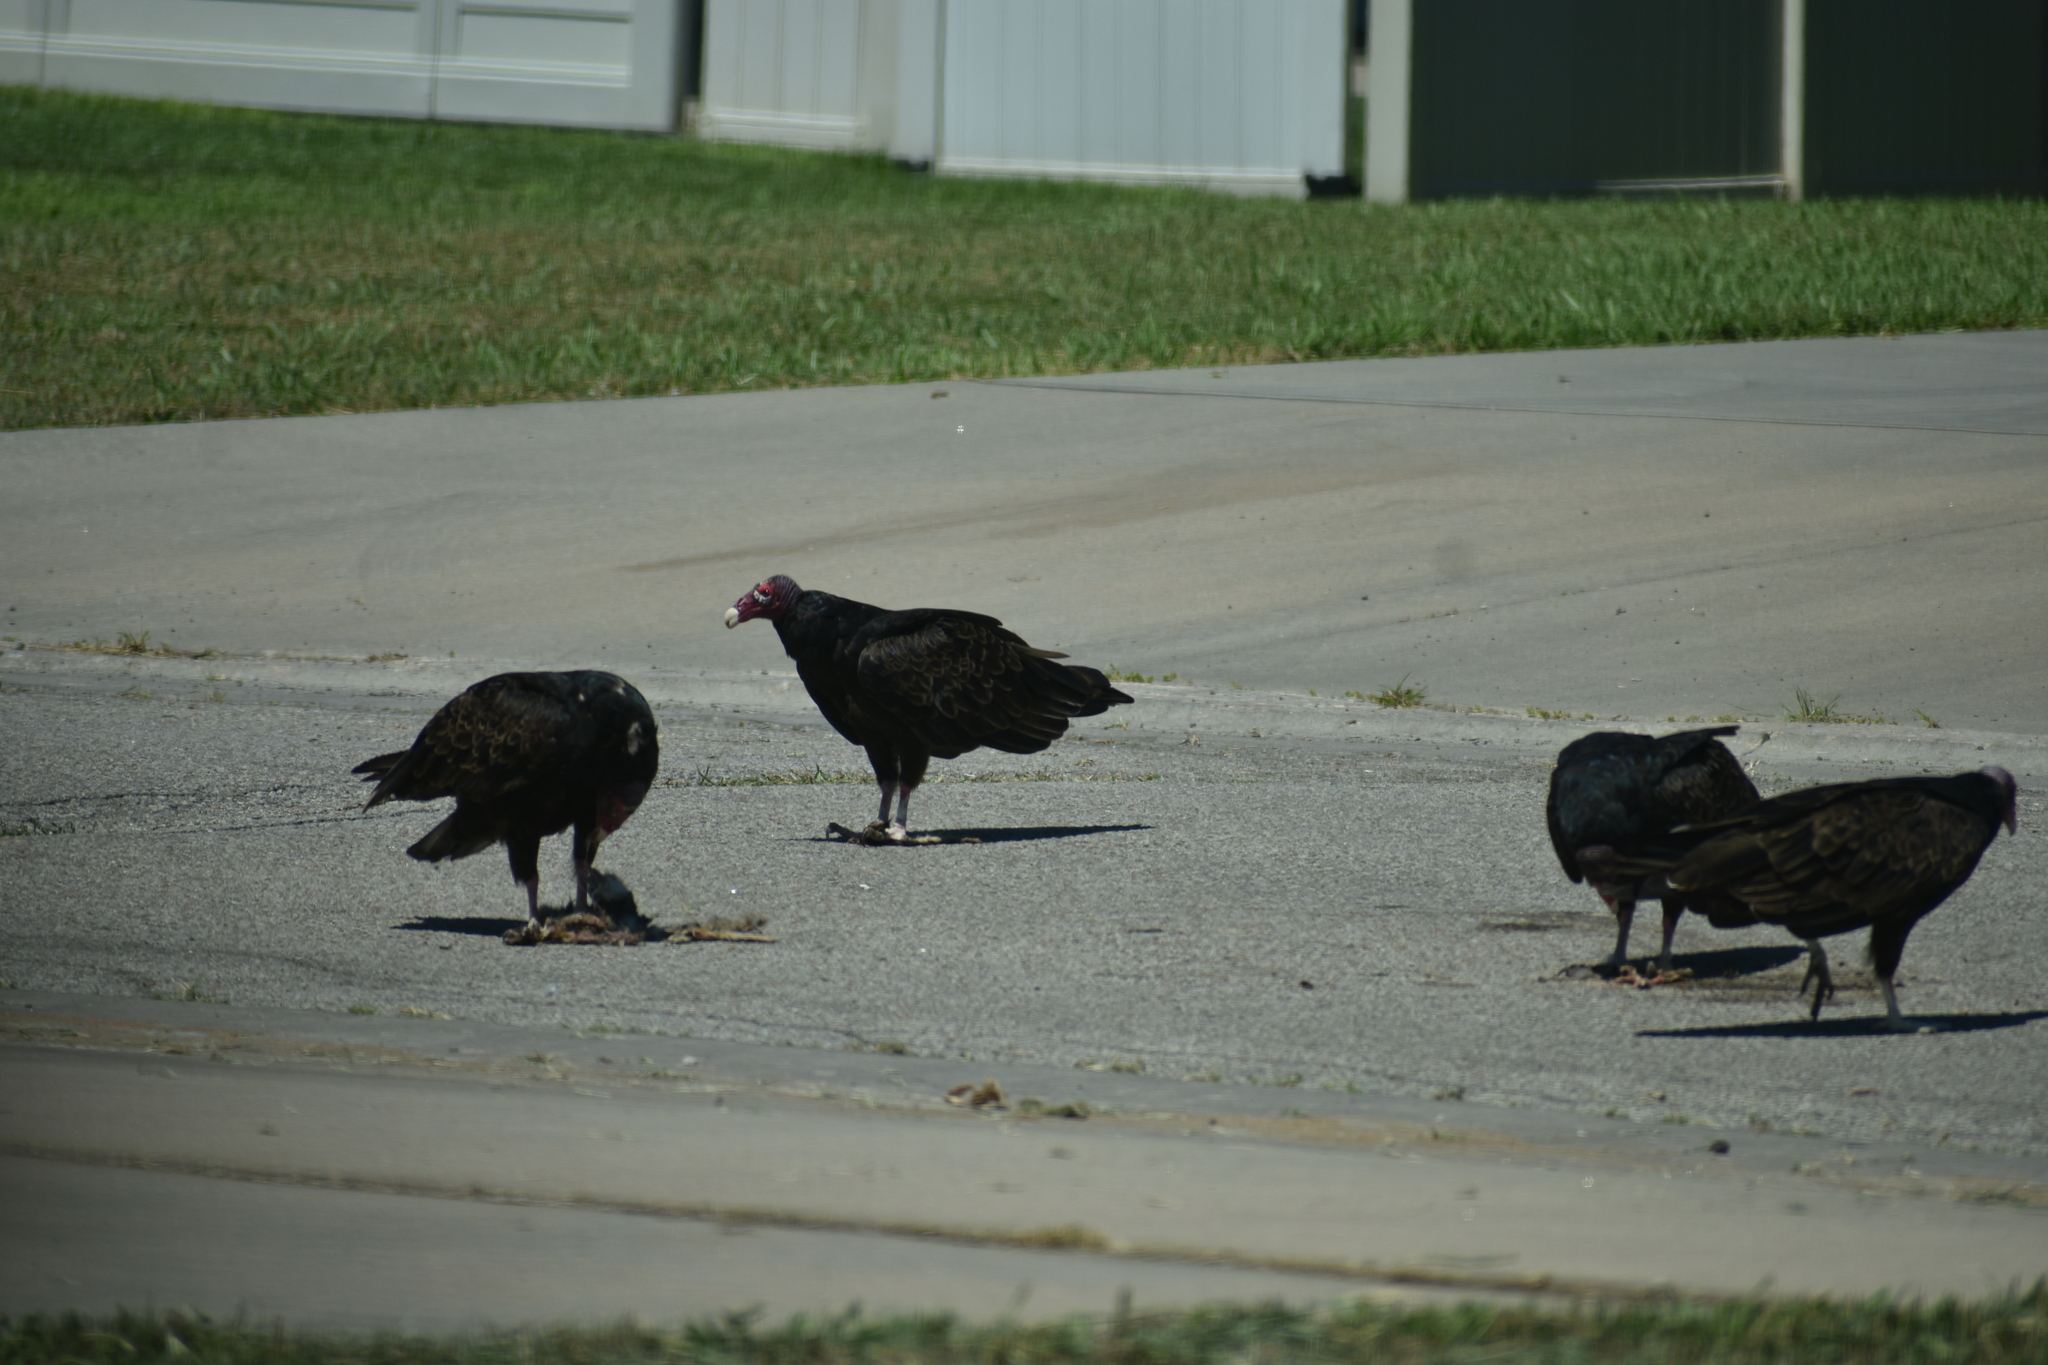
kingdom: Animalia
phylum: Chordata
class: Aves
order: Accipitriformes
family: Cathartidae
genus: Cathartes
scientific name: Cathartes aura
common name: Turkey vulture
